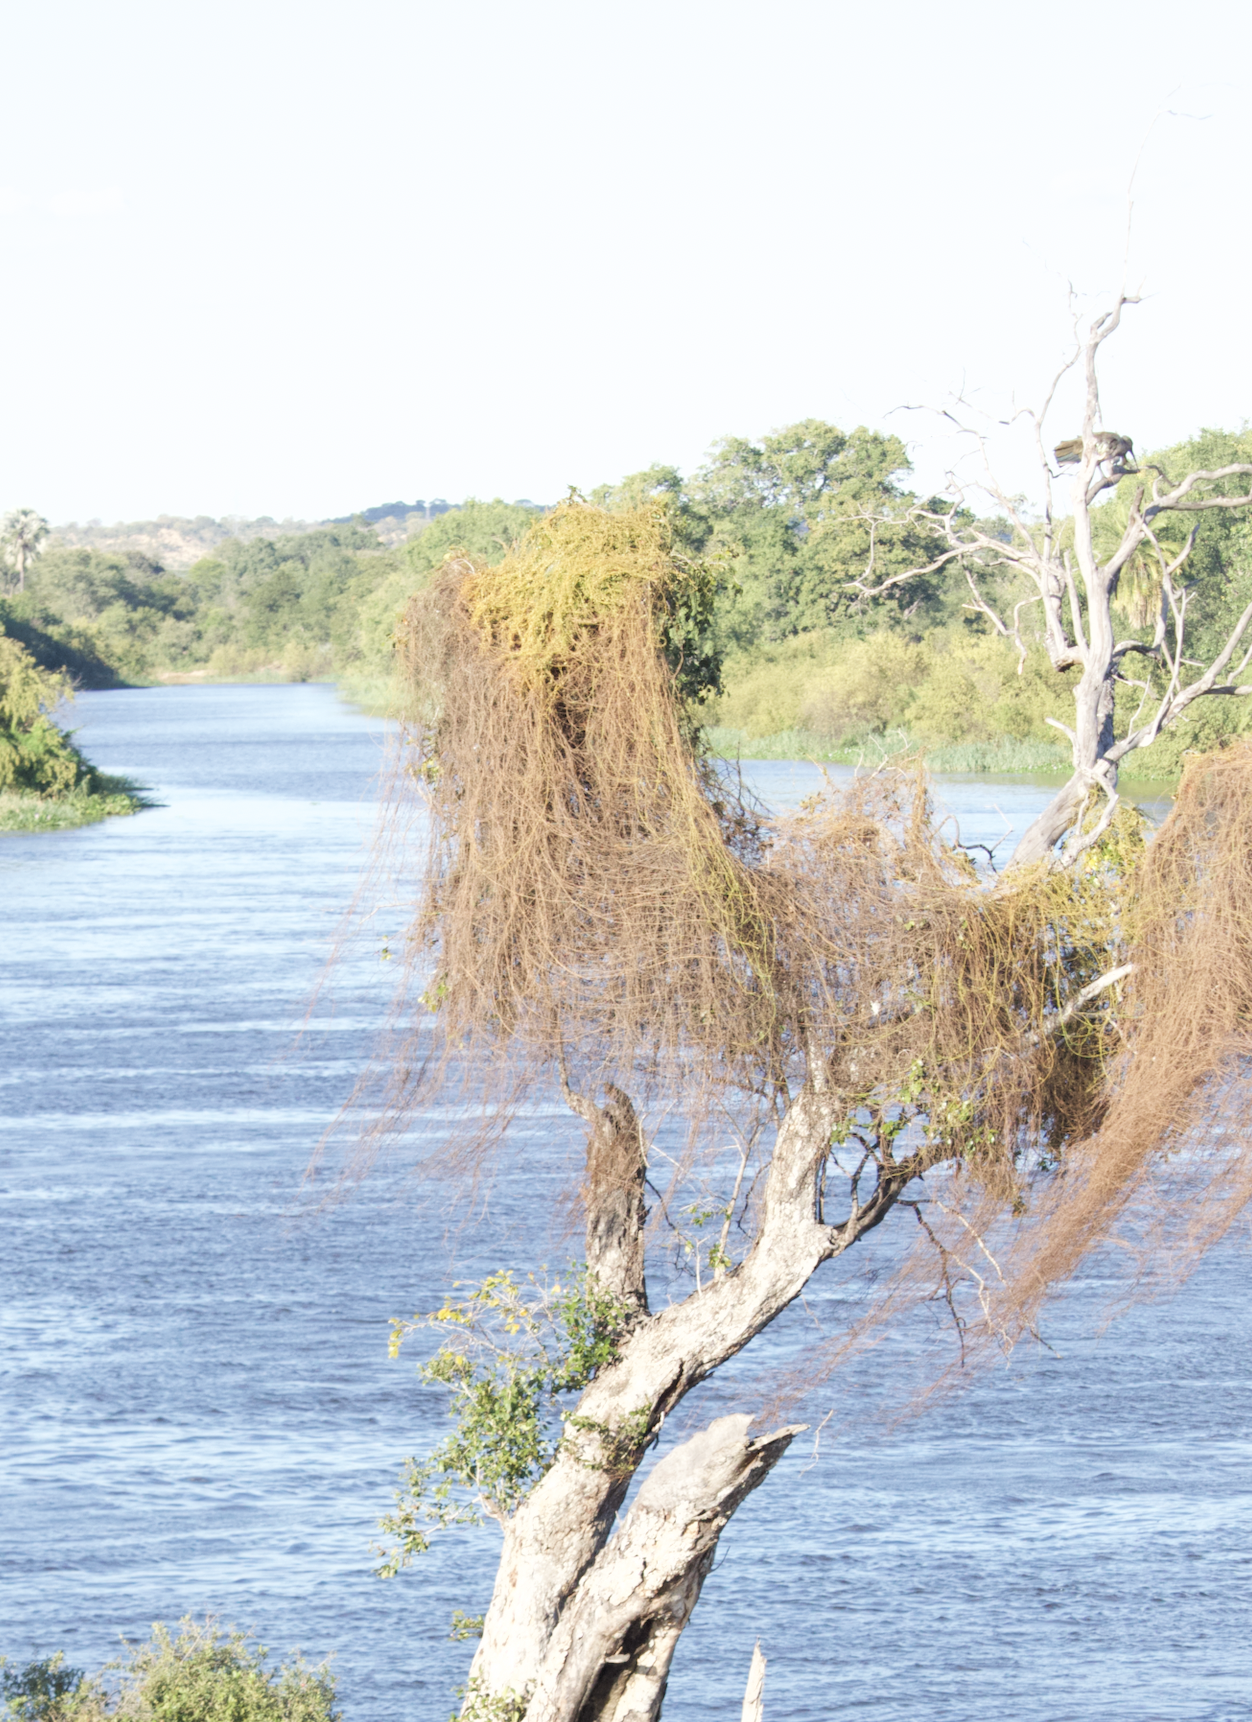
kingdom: Animalia
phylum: Chordata
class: Aves
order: Pelecaniformes
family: Threskiornithidae
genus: Bostrychia
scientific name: Bostrychia hagedash
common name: Hadada ibis
